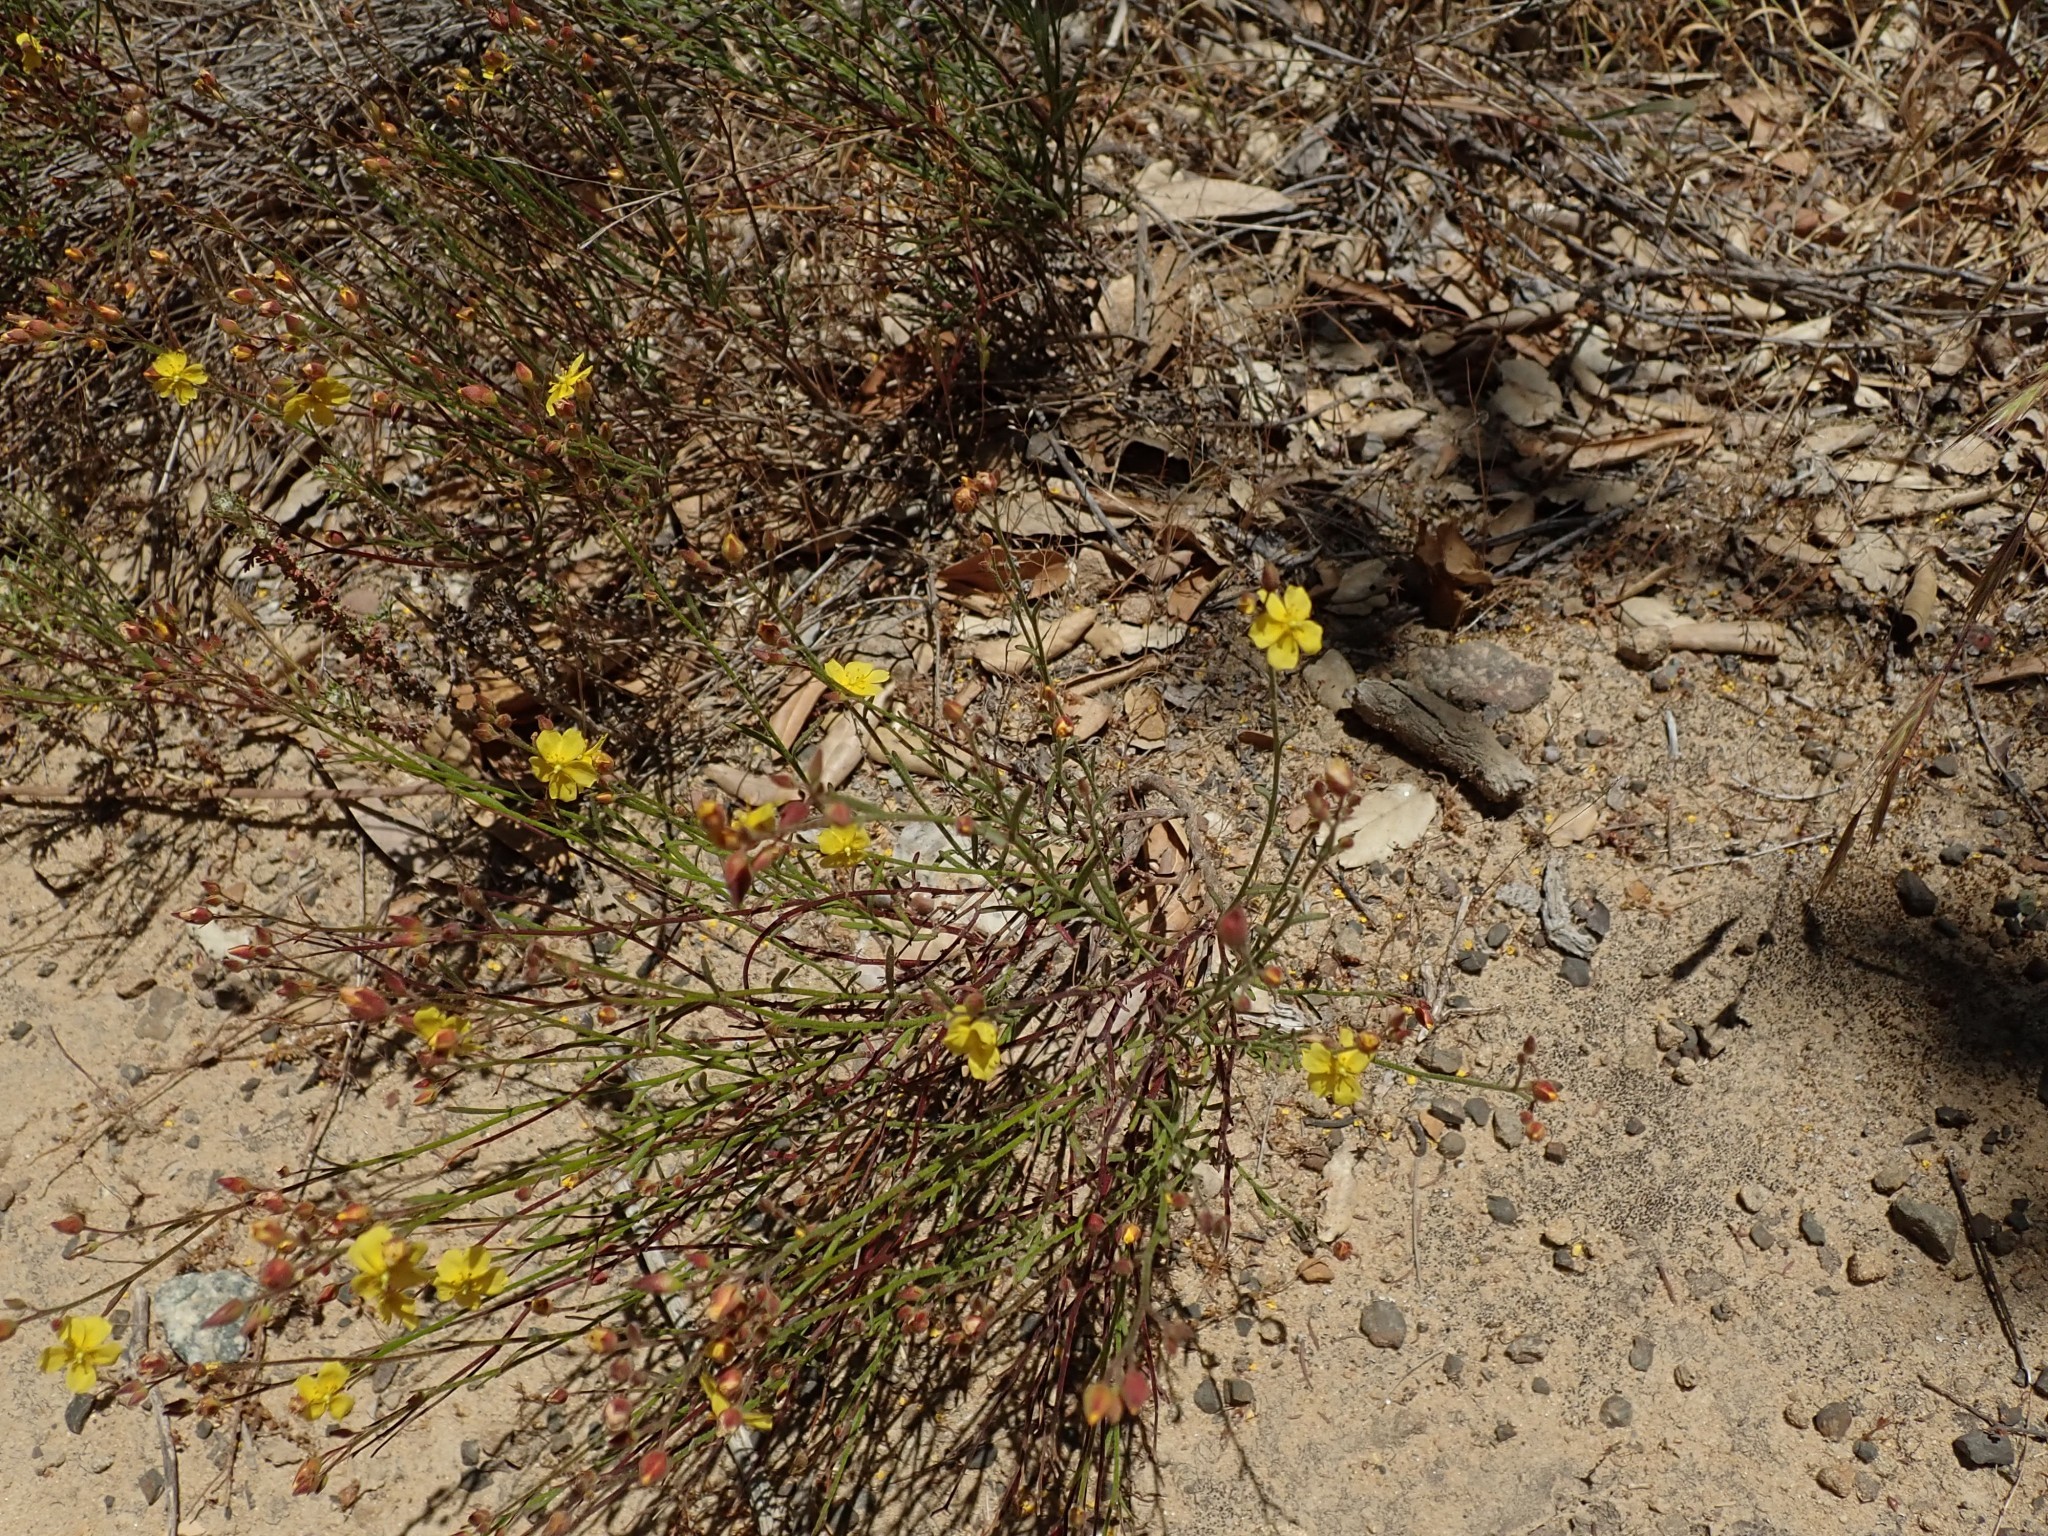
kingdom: Plantae
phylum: Tracheophyta
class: Magnoliopsida
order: Malvales
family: Cistaceae
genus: Crocanthemum
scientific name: Crocanthemum scoparium
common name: Broom-rose
